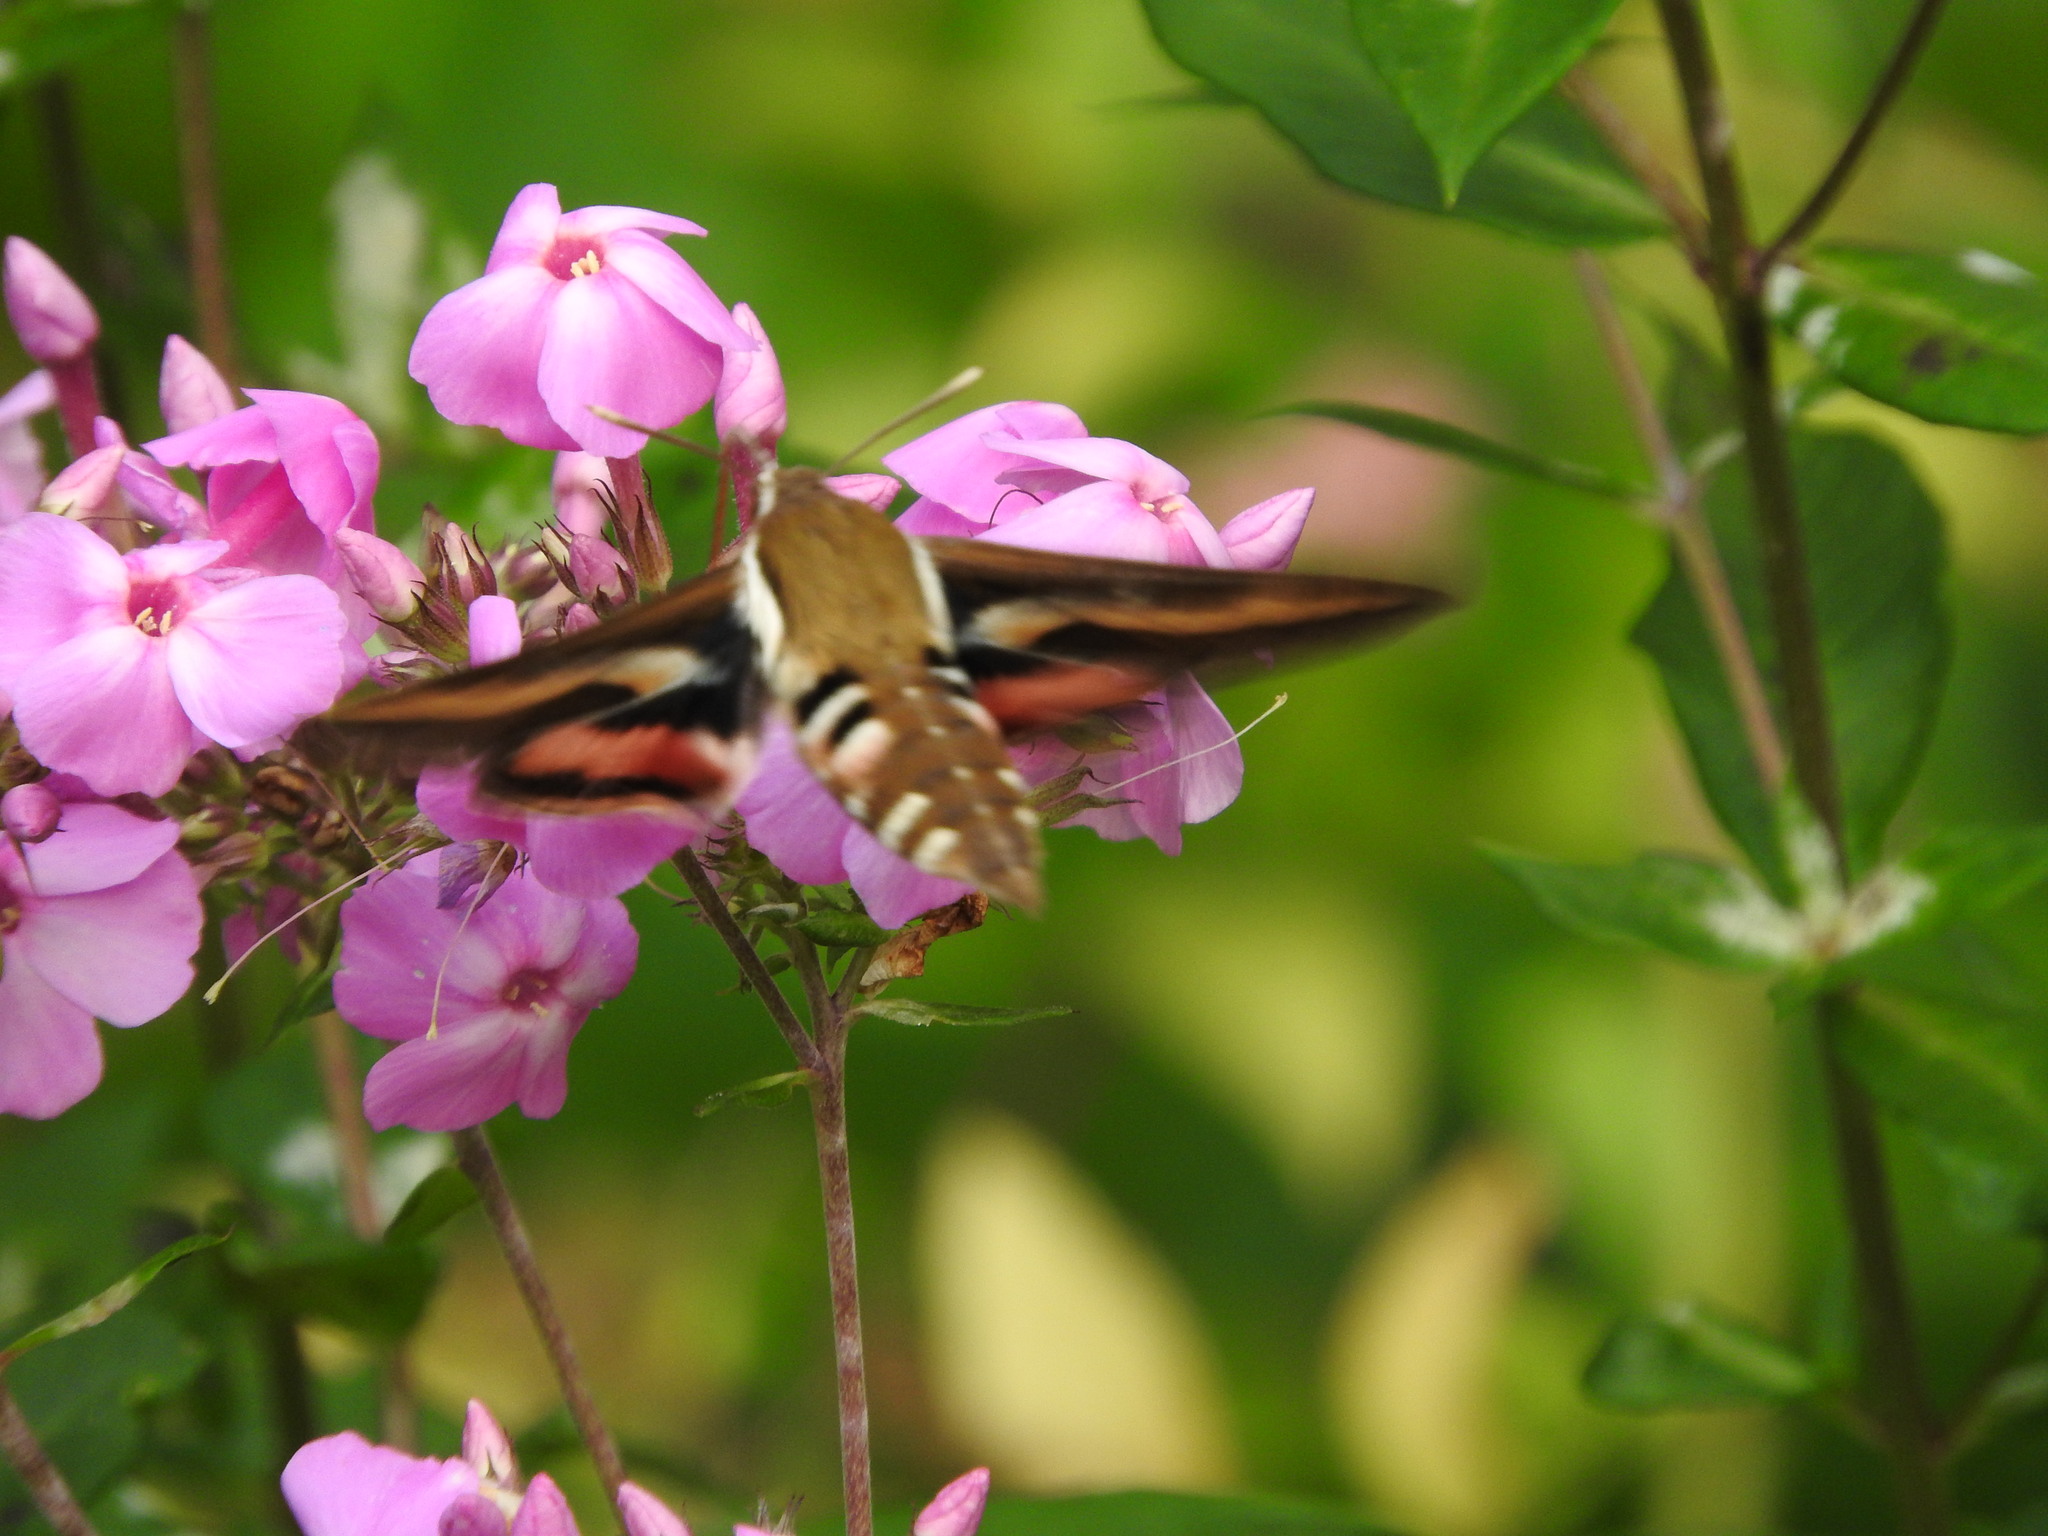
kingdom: Animalia
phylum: Arthropoda
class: Insecta
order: Lepidoptera
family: Sphingidae
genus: Hyles
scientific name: Hyles gallii
